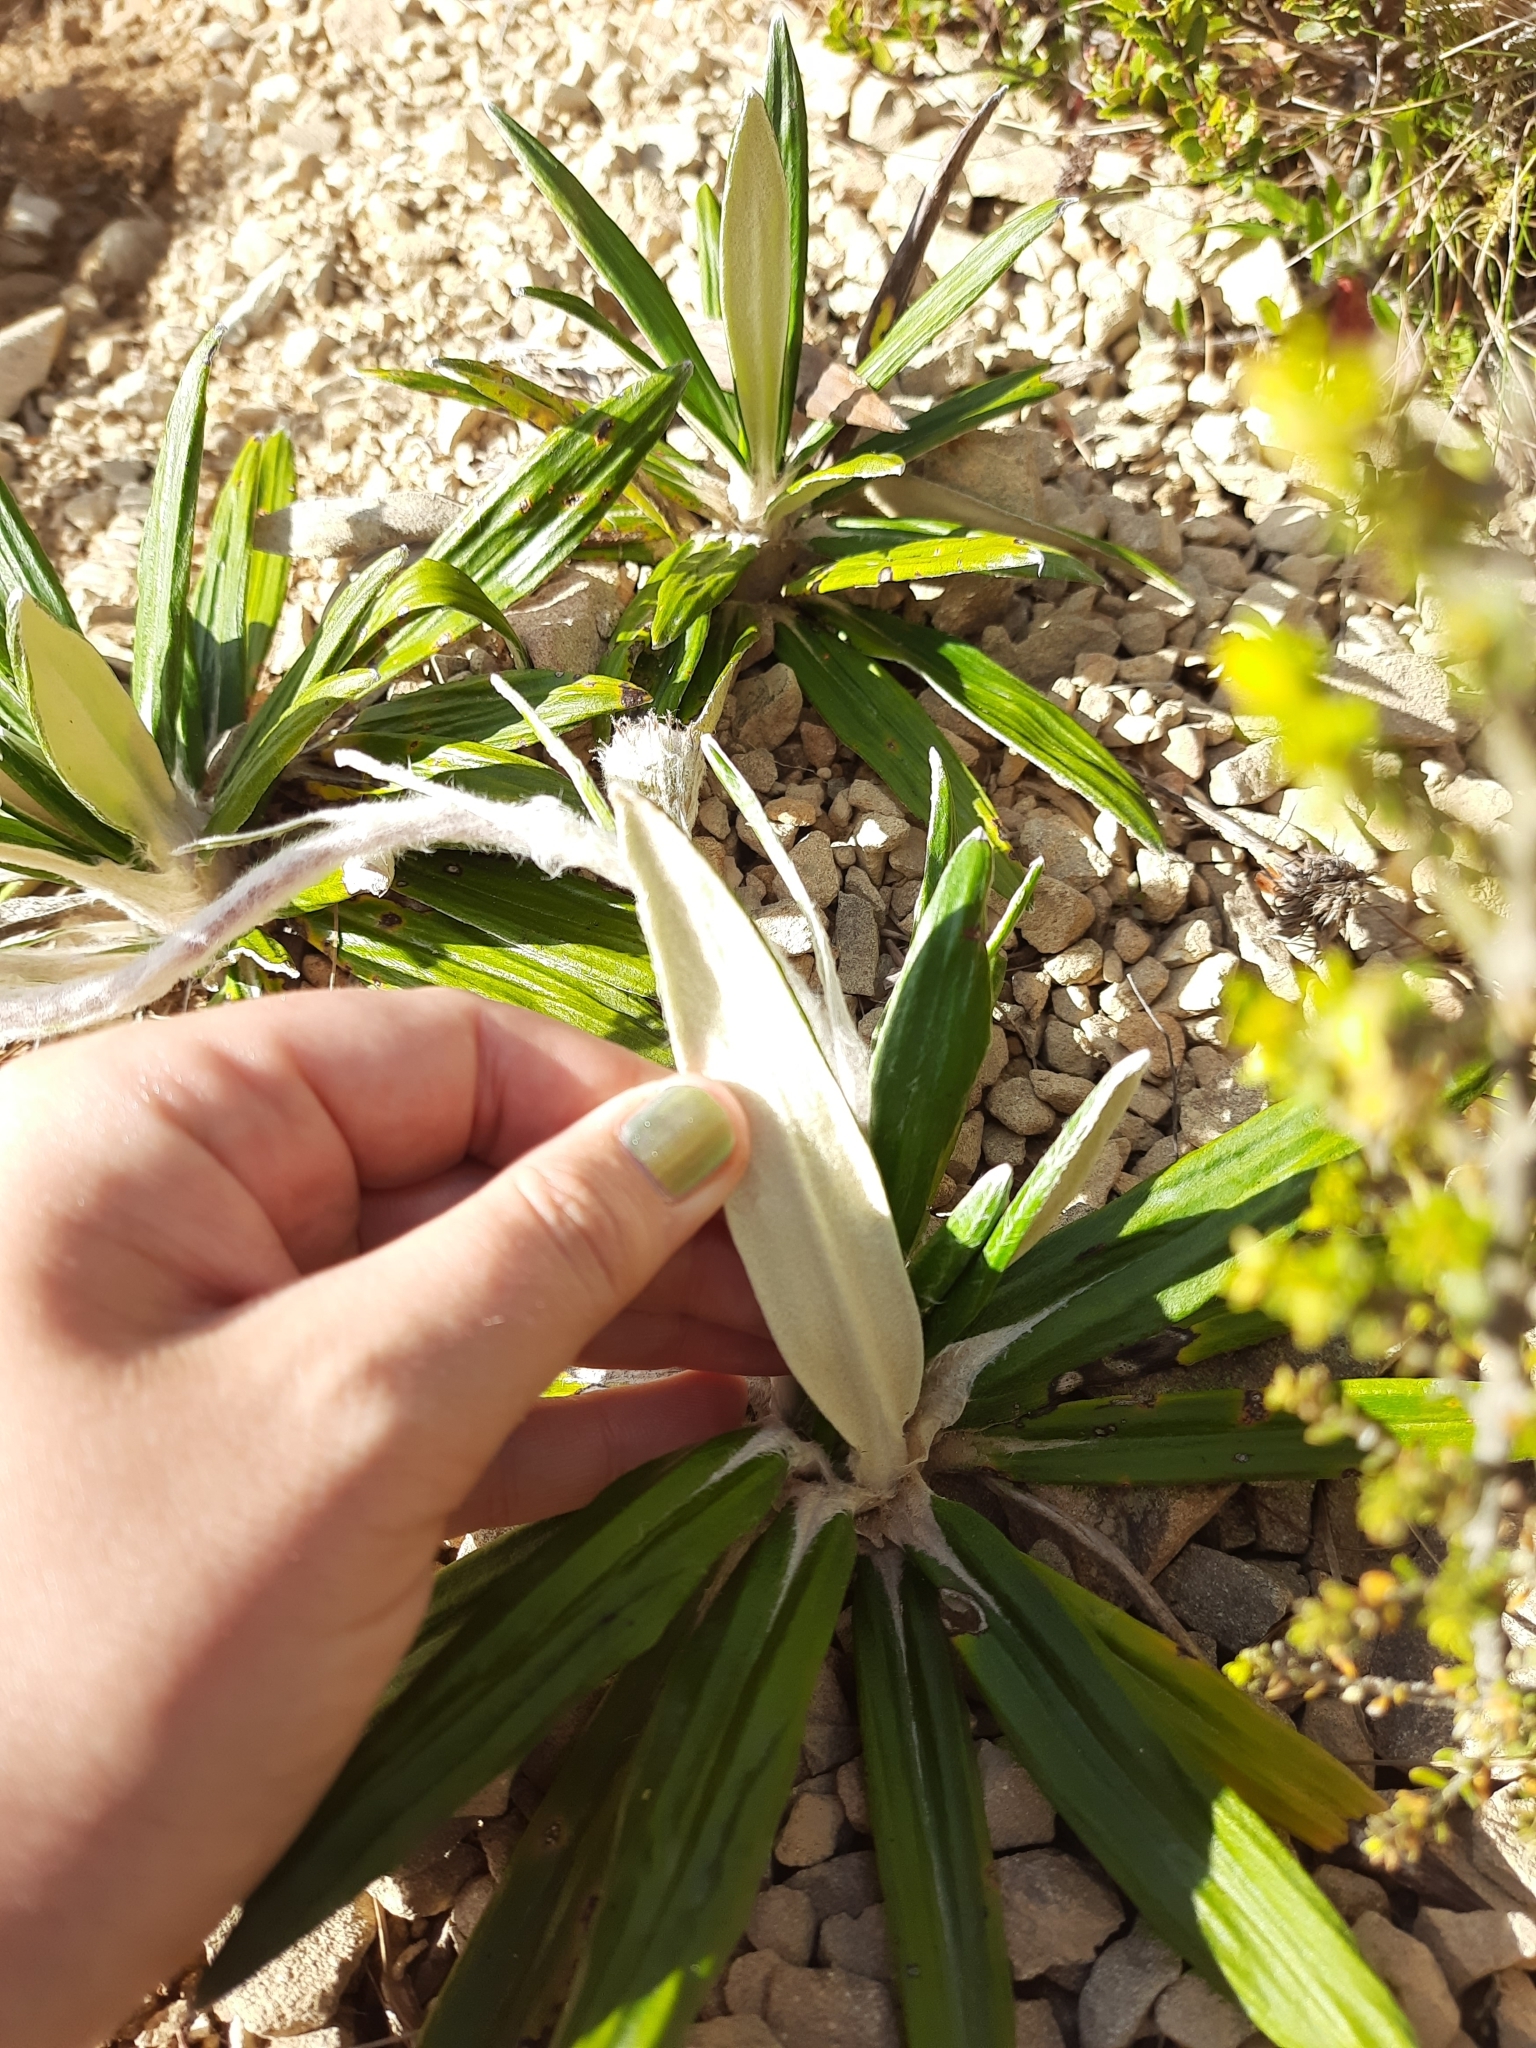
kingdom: Plantae
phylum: Tracheophyta
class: Magnoliopsida
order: Asterales
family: Asteraceae
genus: Celmisia
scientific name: Celmisia spectabilis
